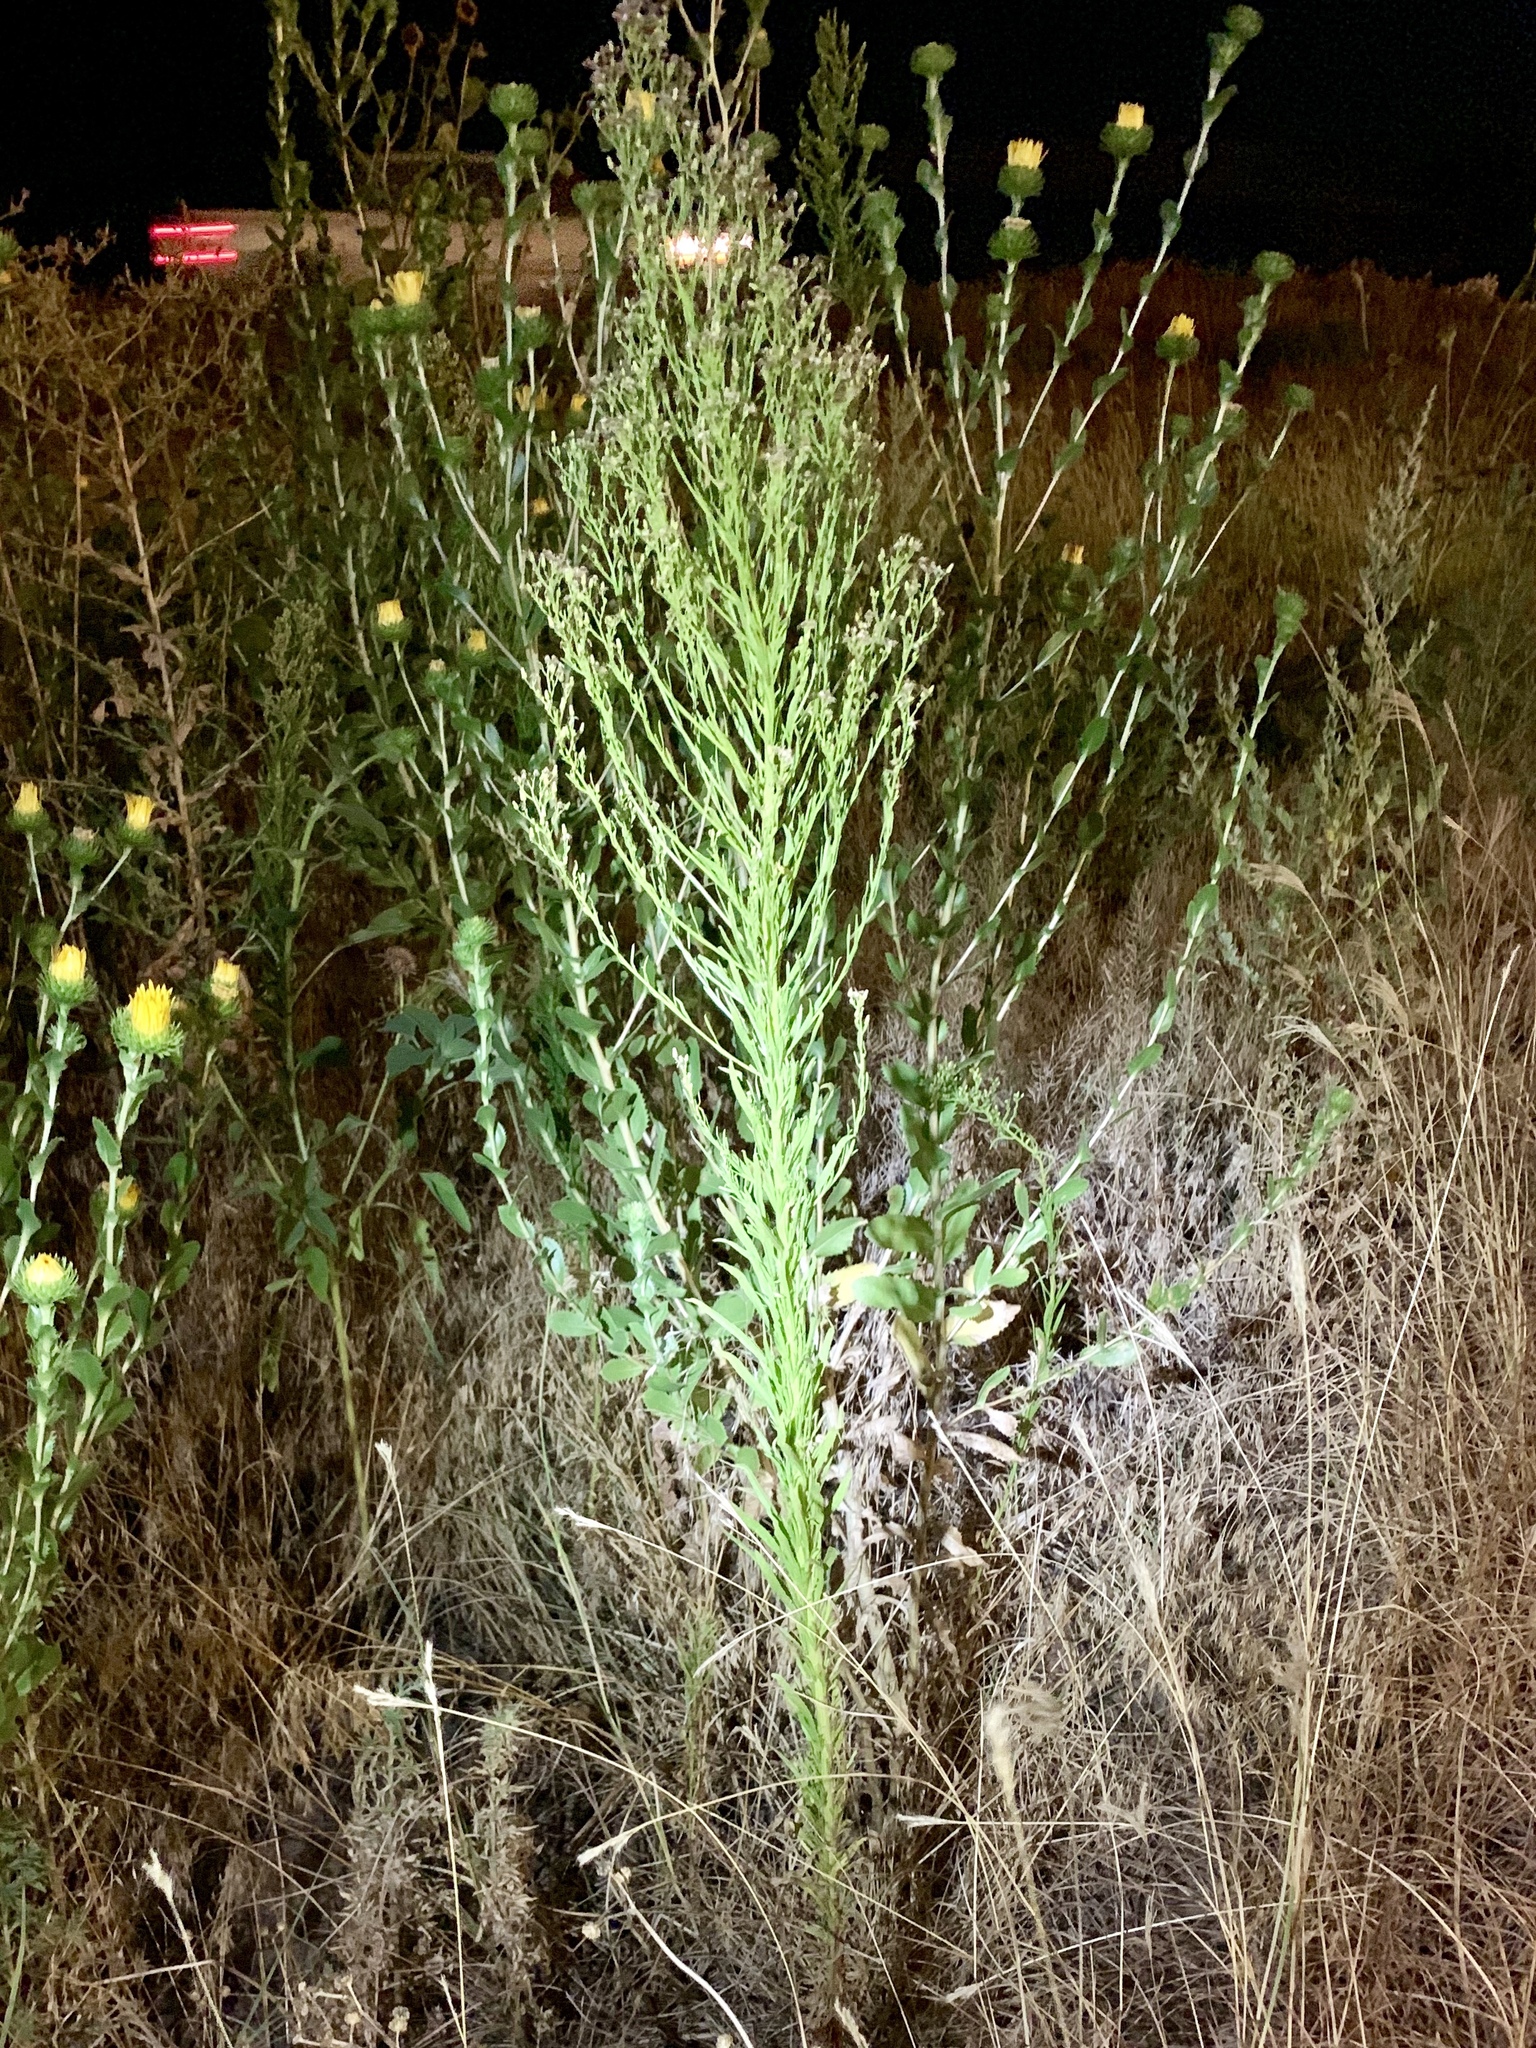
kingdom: Plantae
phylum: Tracheophyta
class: Magnoliopsida
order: Asterales
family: Asteraceae
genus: Erigeron
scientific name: Erigeron canadensis
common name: Canadian fleabane
